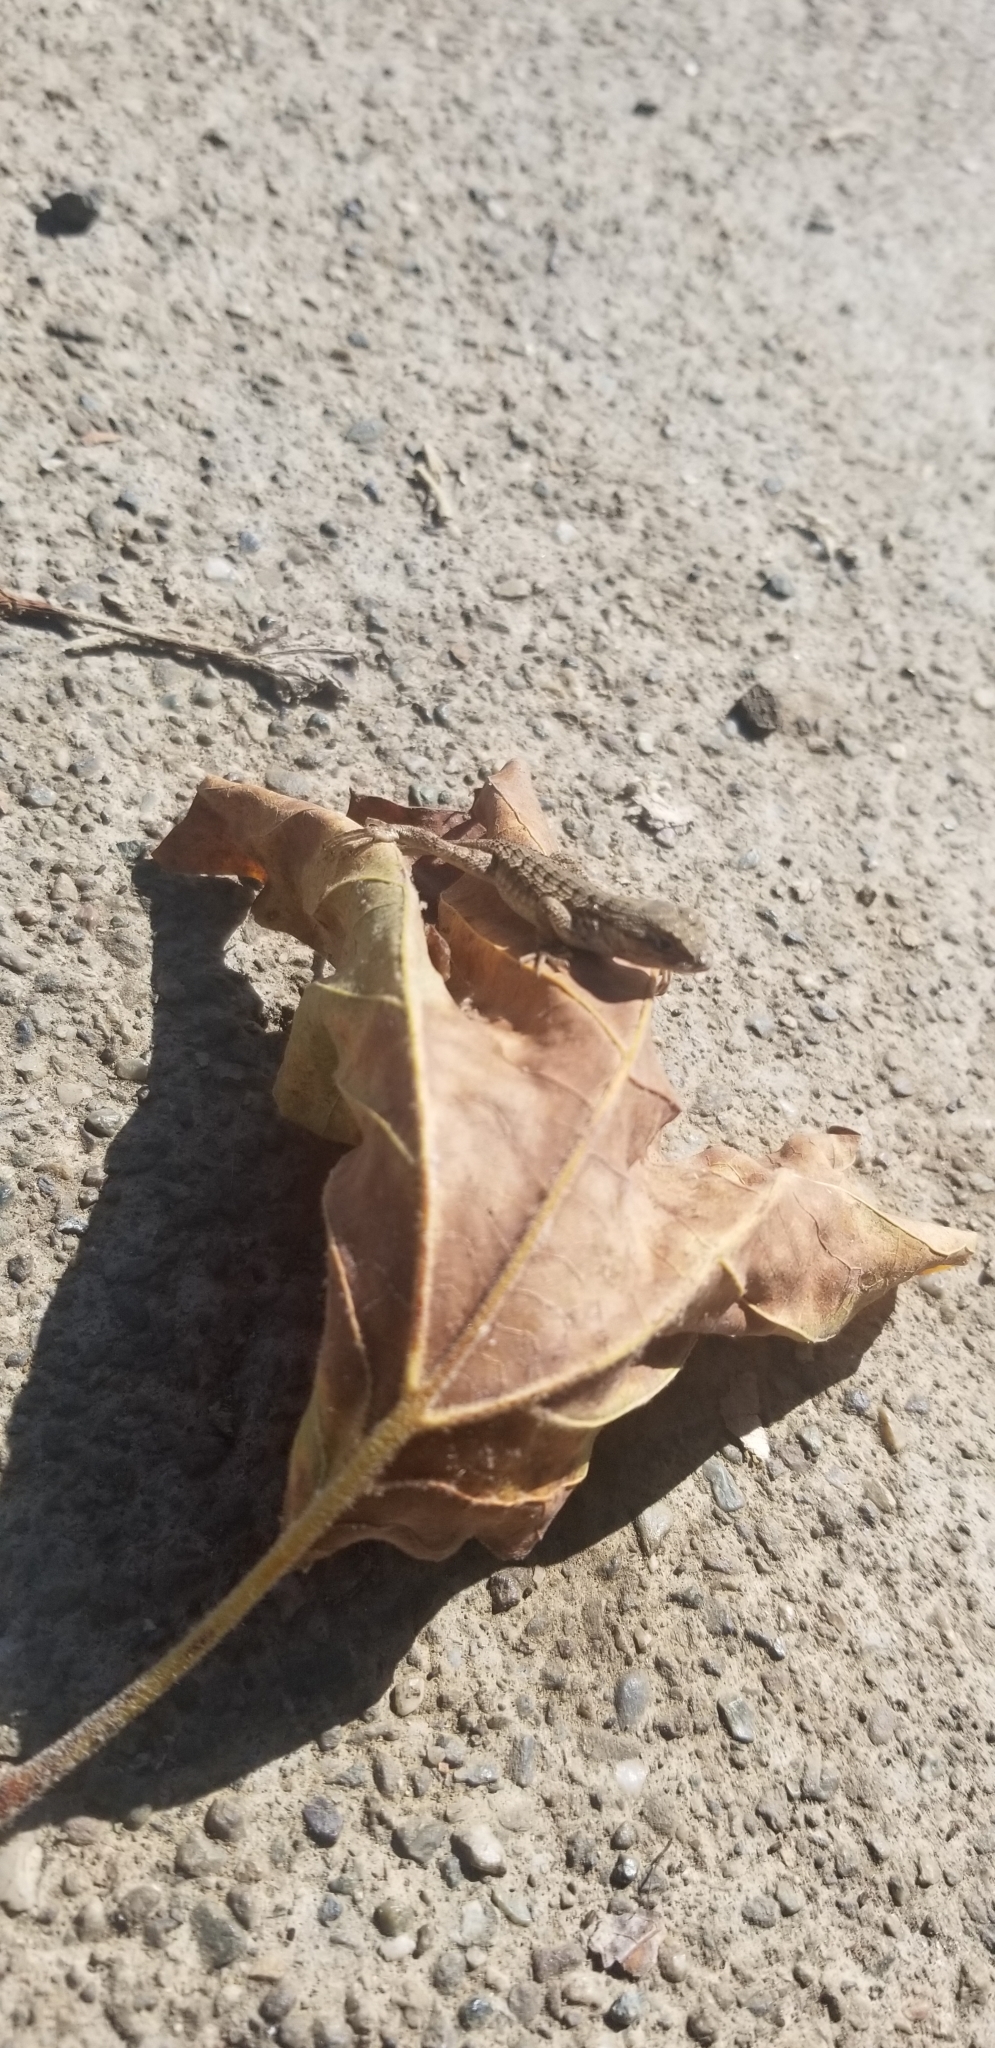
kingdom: Animalia
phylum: Chordata
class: Squamata
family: Phrynosomatidae
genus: Sceloporus
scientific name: Sceloporus occidentalis
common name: Western fence lizard
